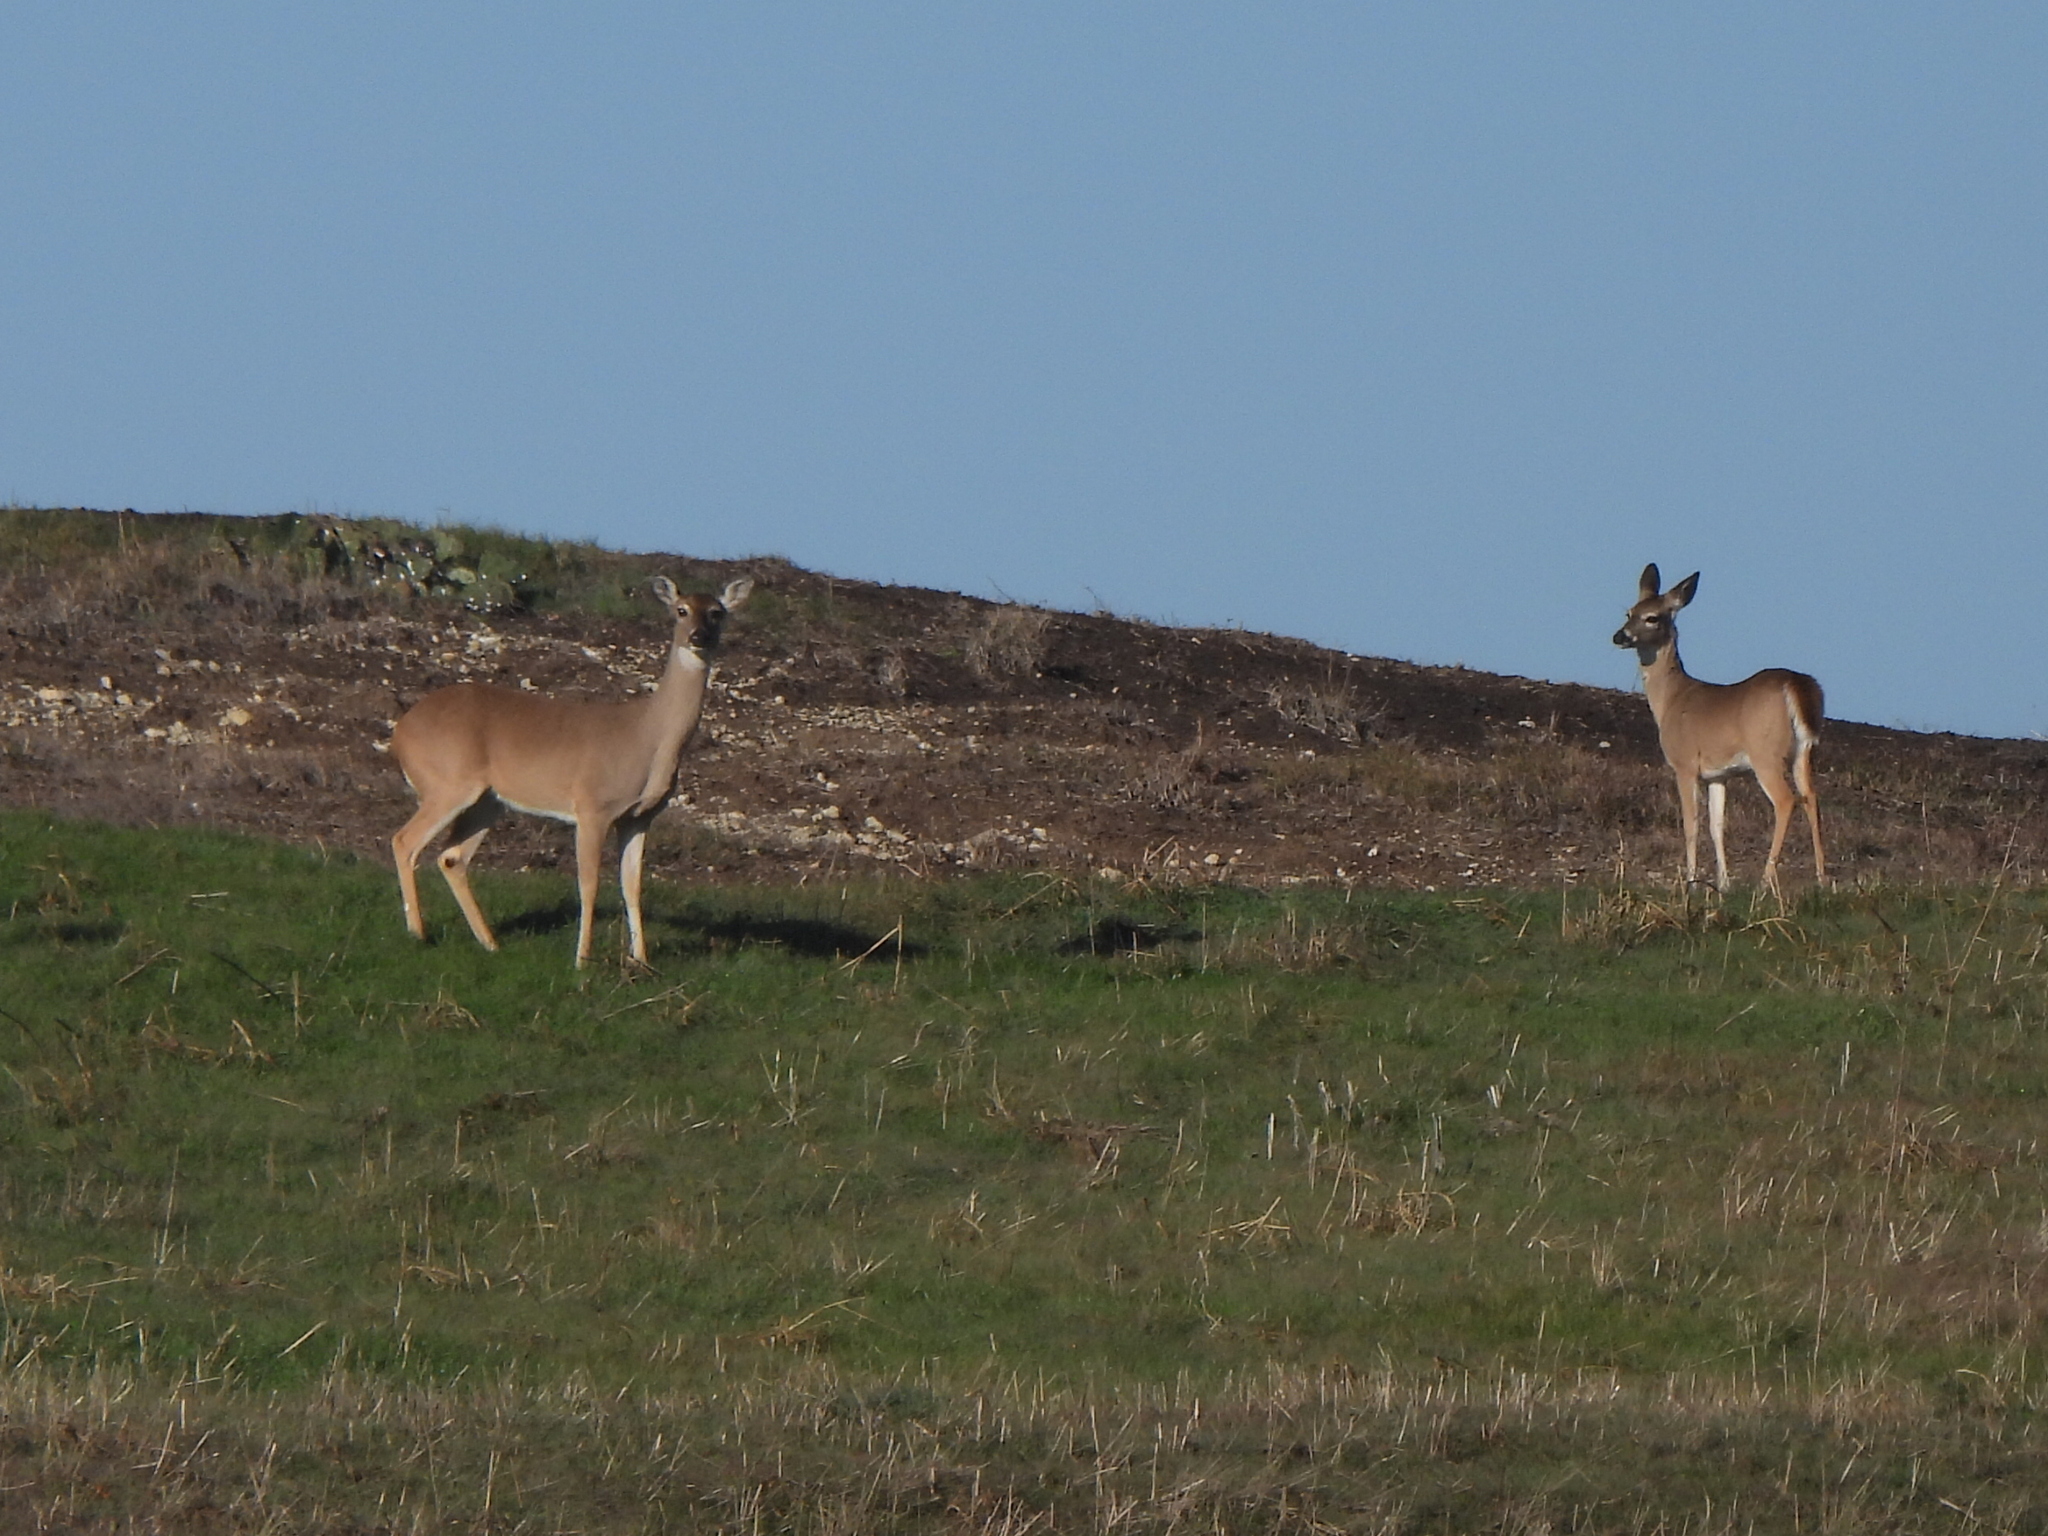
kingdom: Animalia
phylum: Chordata
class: Mammalia
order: Artiodactyla
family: Cervidae
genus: Odocoileus
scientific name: Odocoileus virginianus
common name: White-tailed deer
